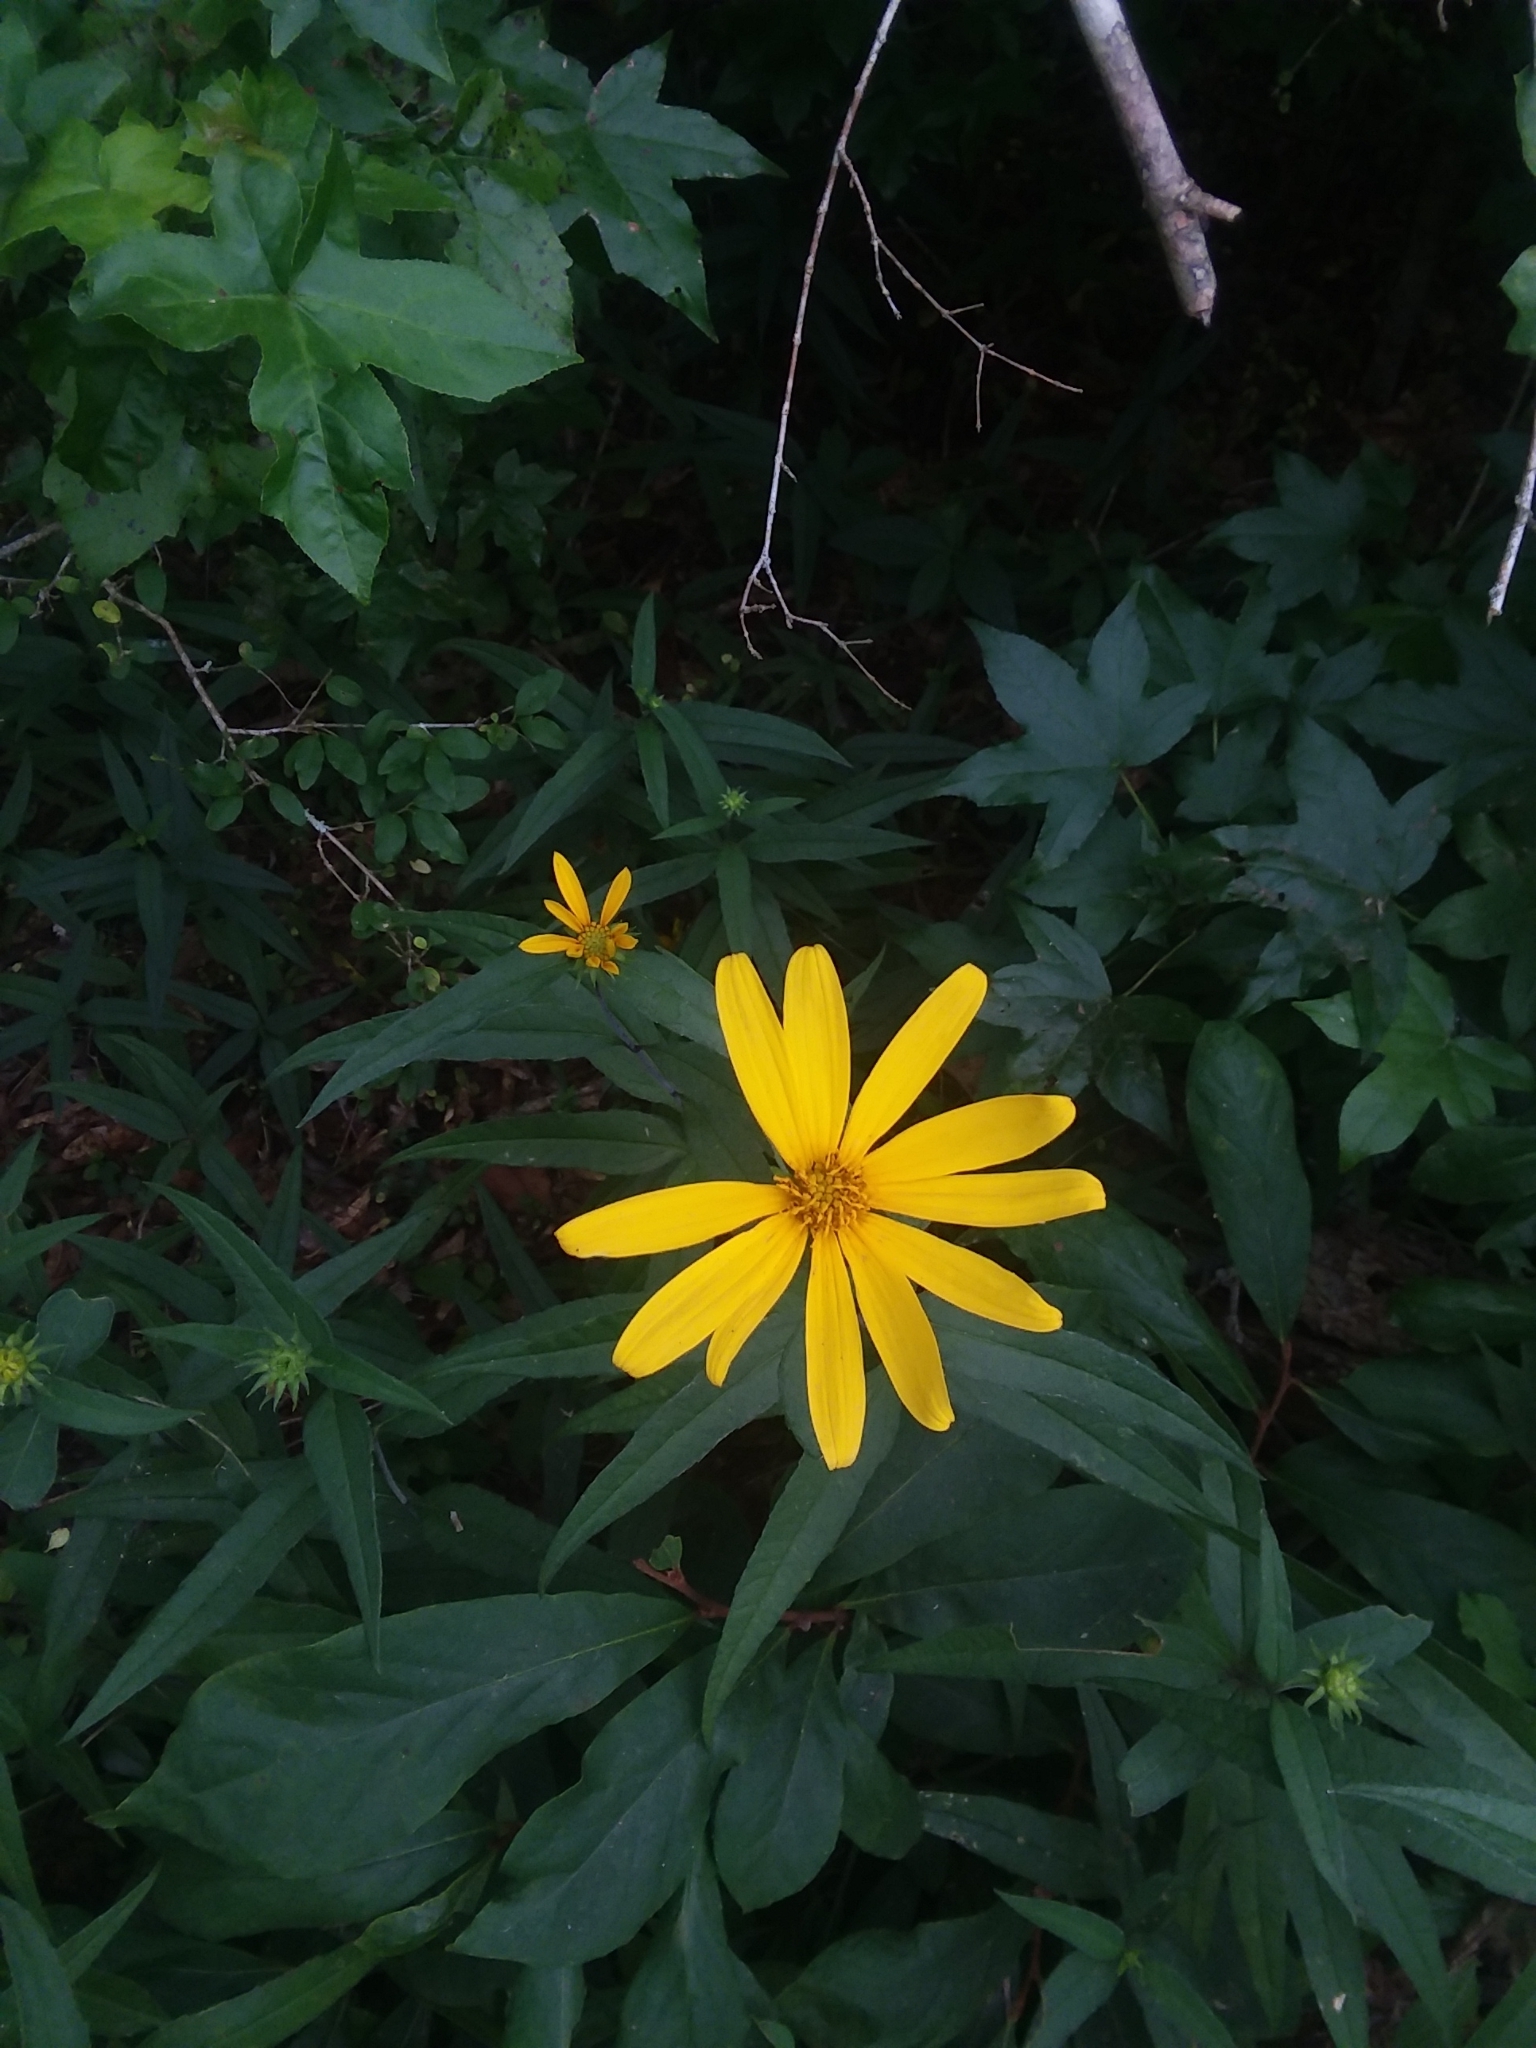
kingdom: Plantae
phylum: Tracheophyta
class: Magnoliopsida
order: Asterales
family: Asteraceae
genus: Helianthus
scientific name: Helianthus strumosus
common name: Pale-leaved sunflower
